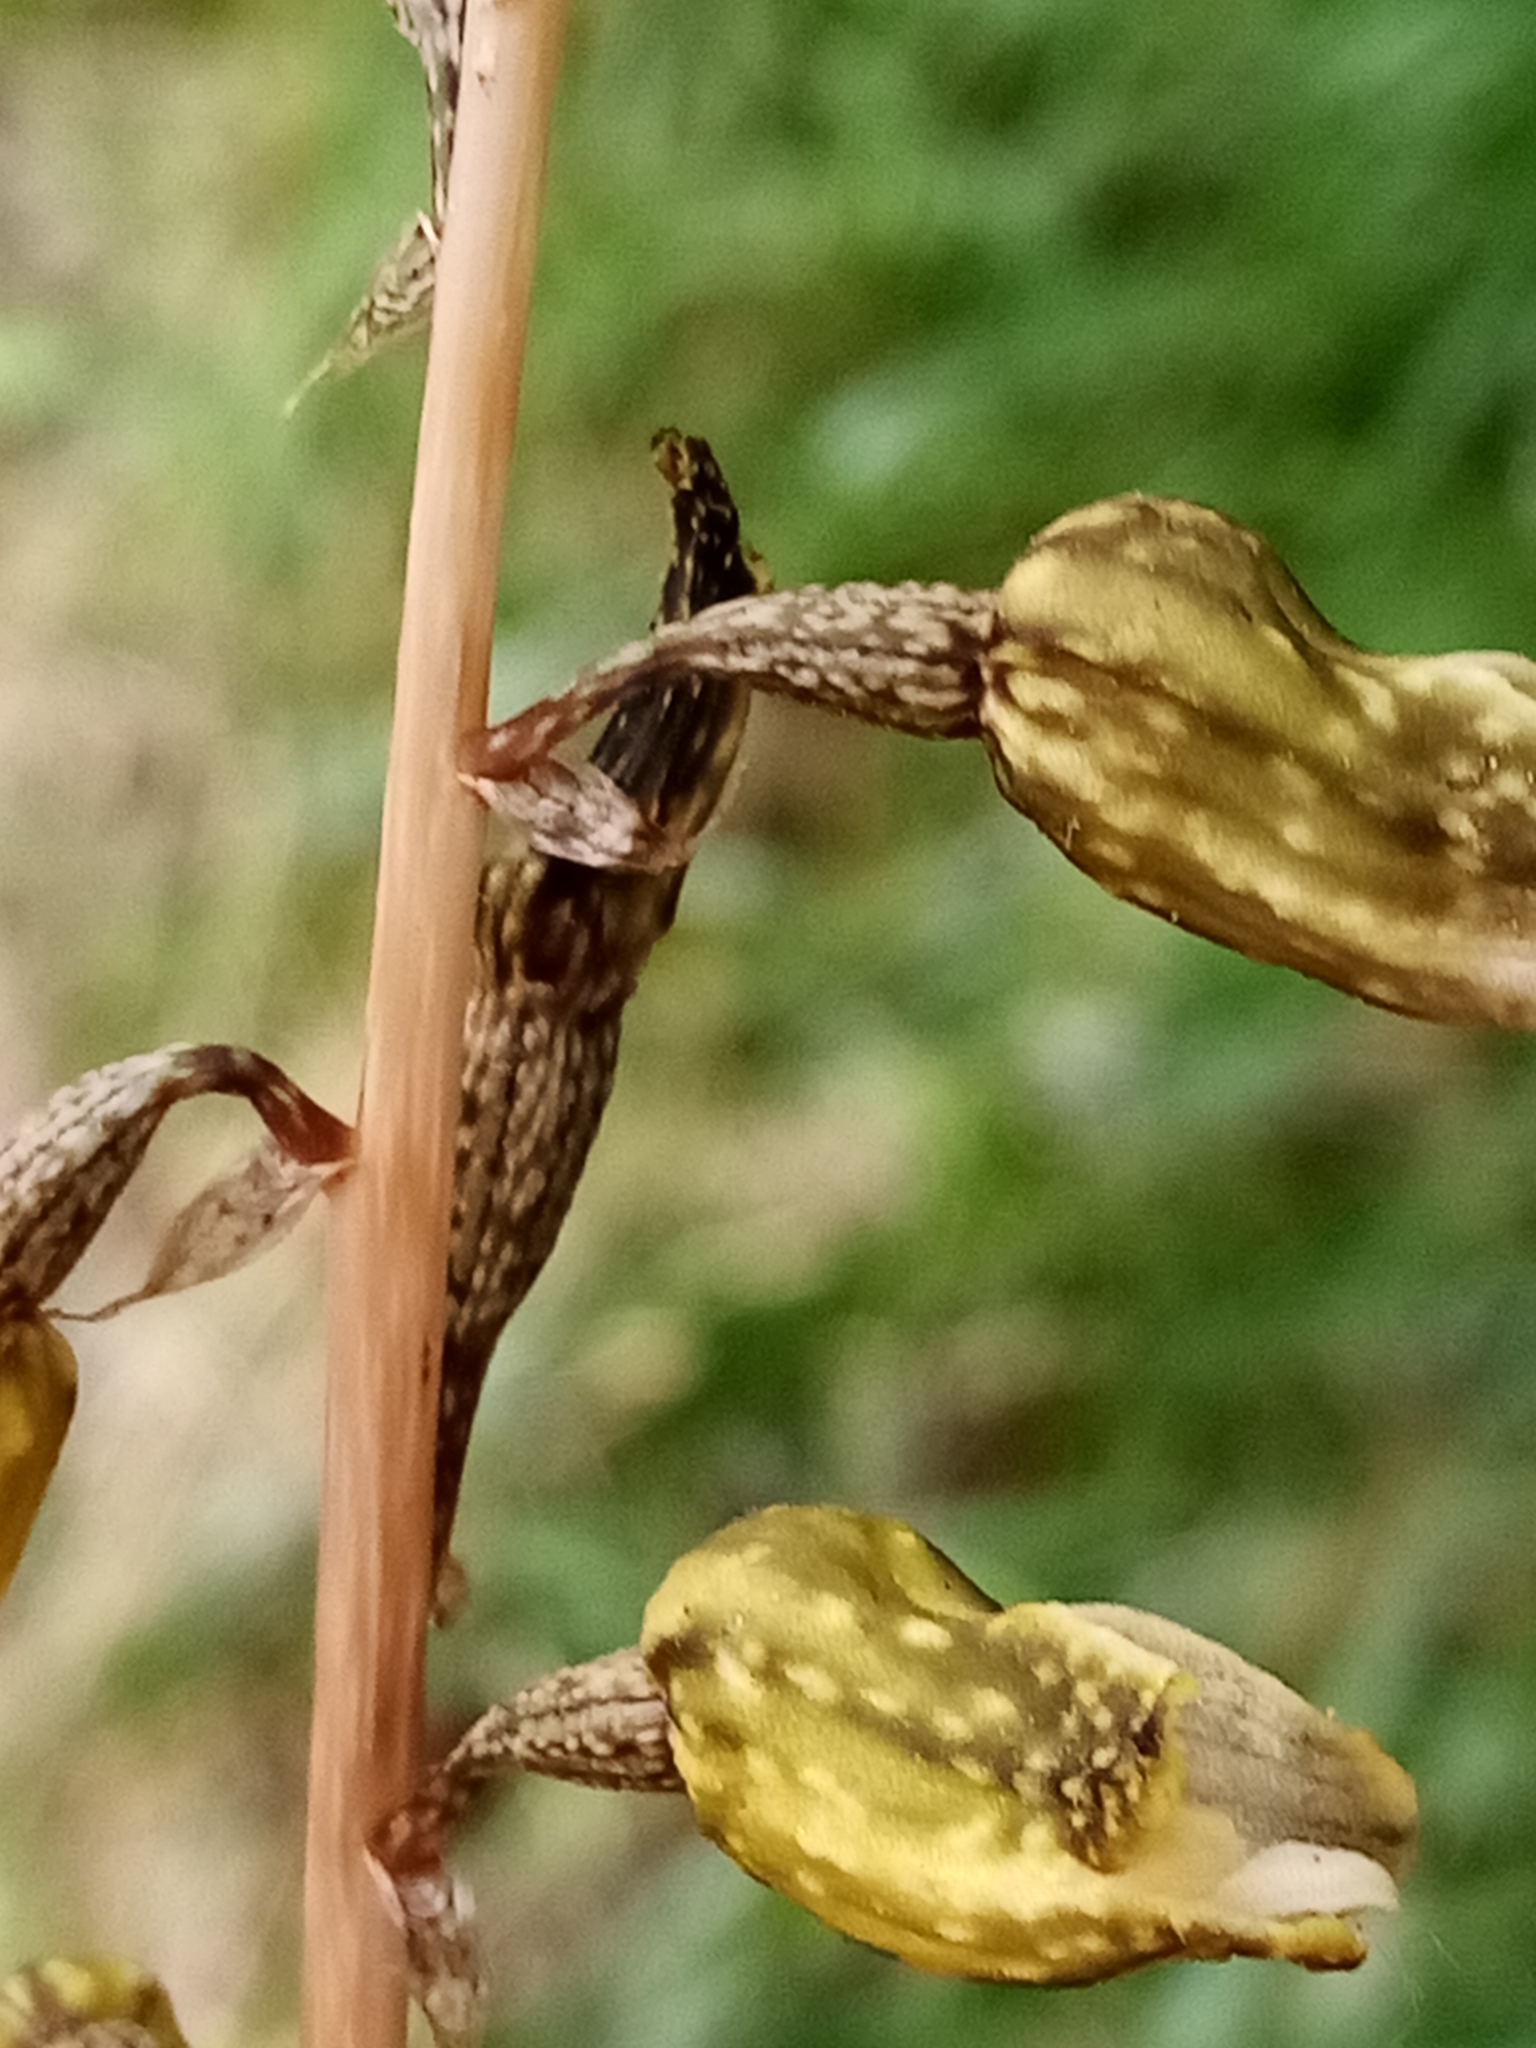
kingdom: Plantae
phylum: Tracheophyta
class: Liliopsida
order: Asparagales
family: Orchidaceae
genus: Gastrodia
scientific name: Gastrodia molloyi
